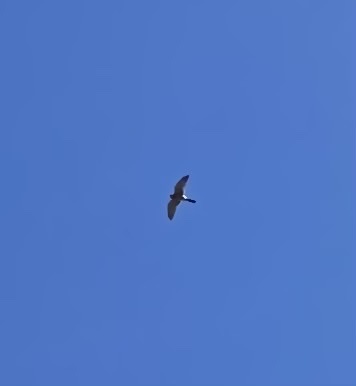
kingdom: Animalia
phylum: Chordata
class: Aves
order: Falconiformes
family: Falconidae
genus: Falco
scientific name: Falco tinnunculus
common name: Common kestrel
